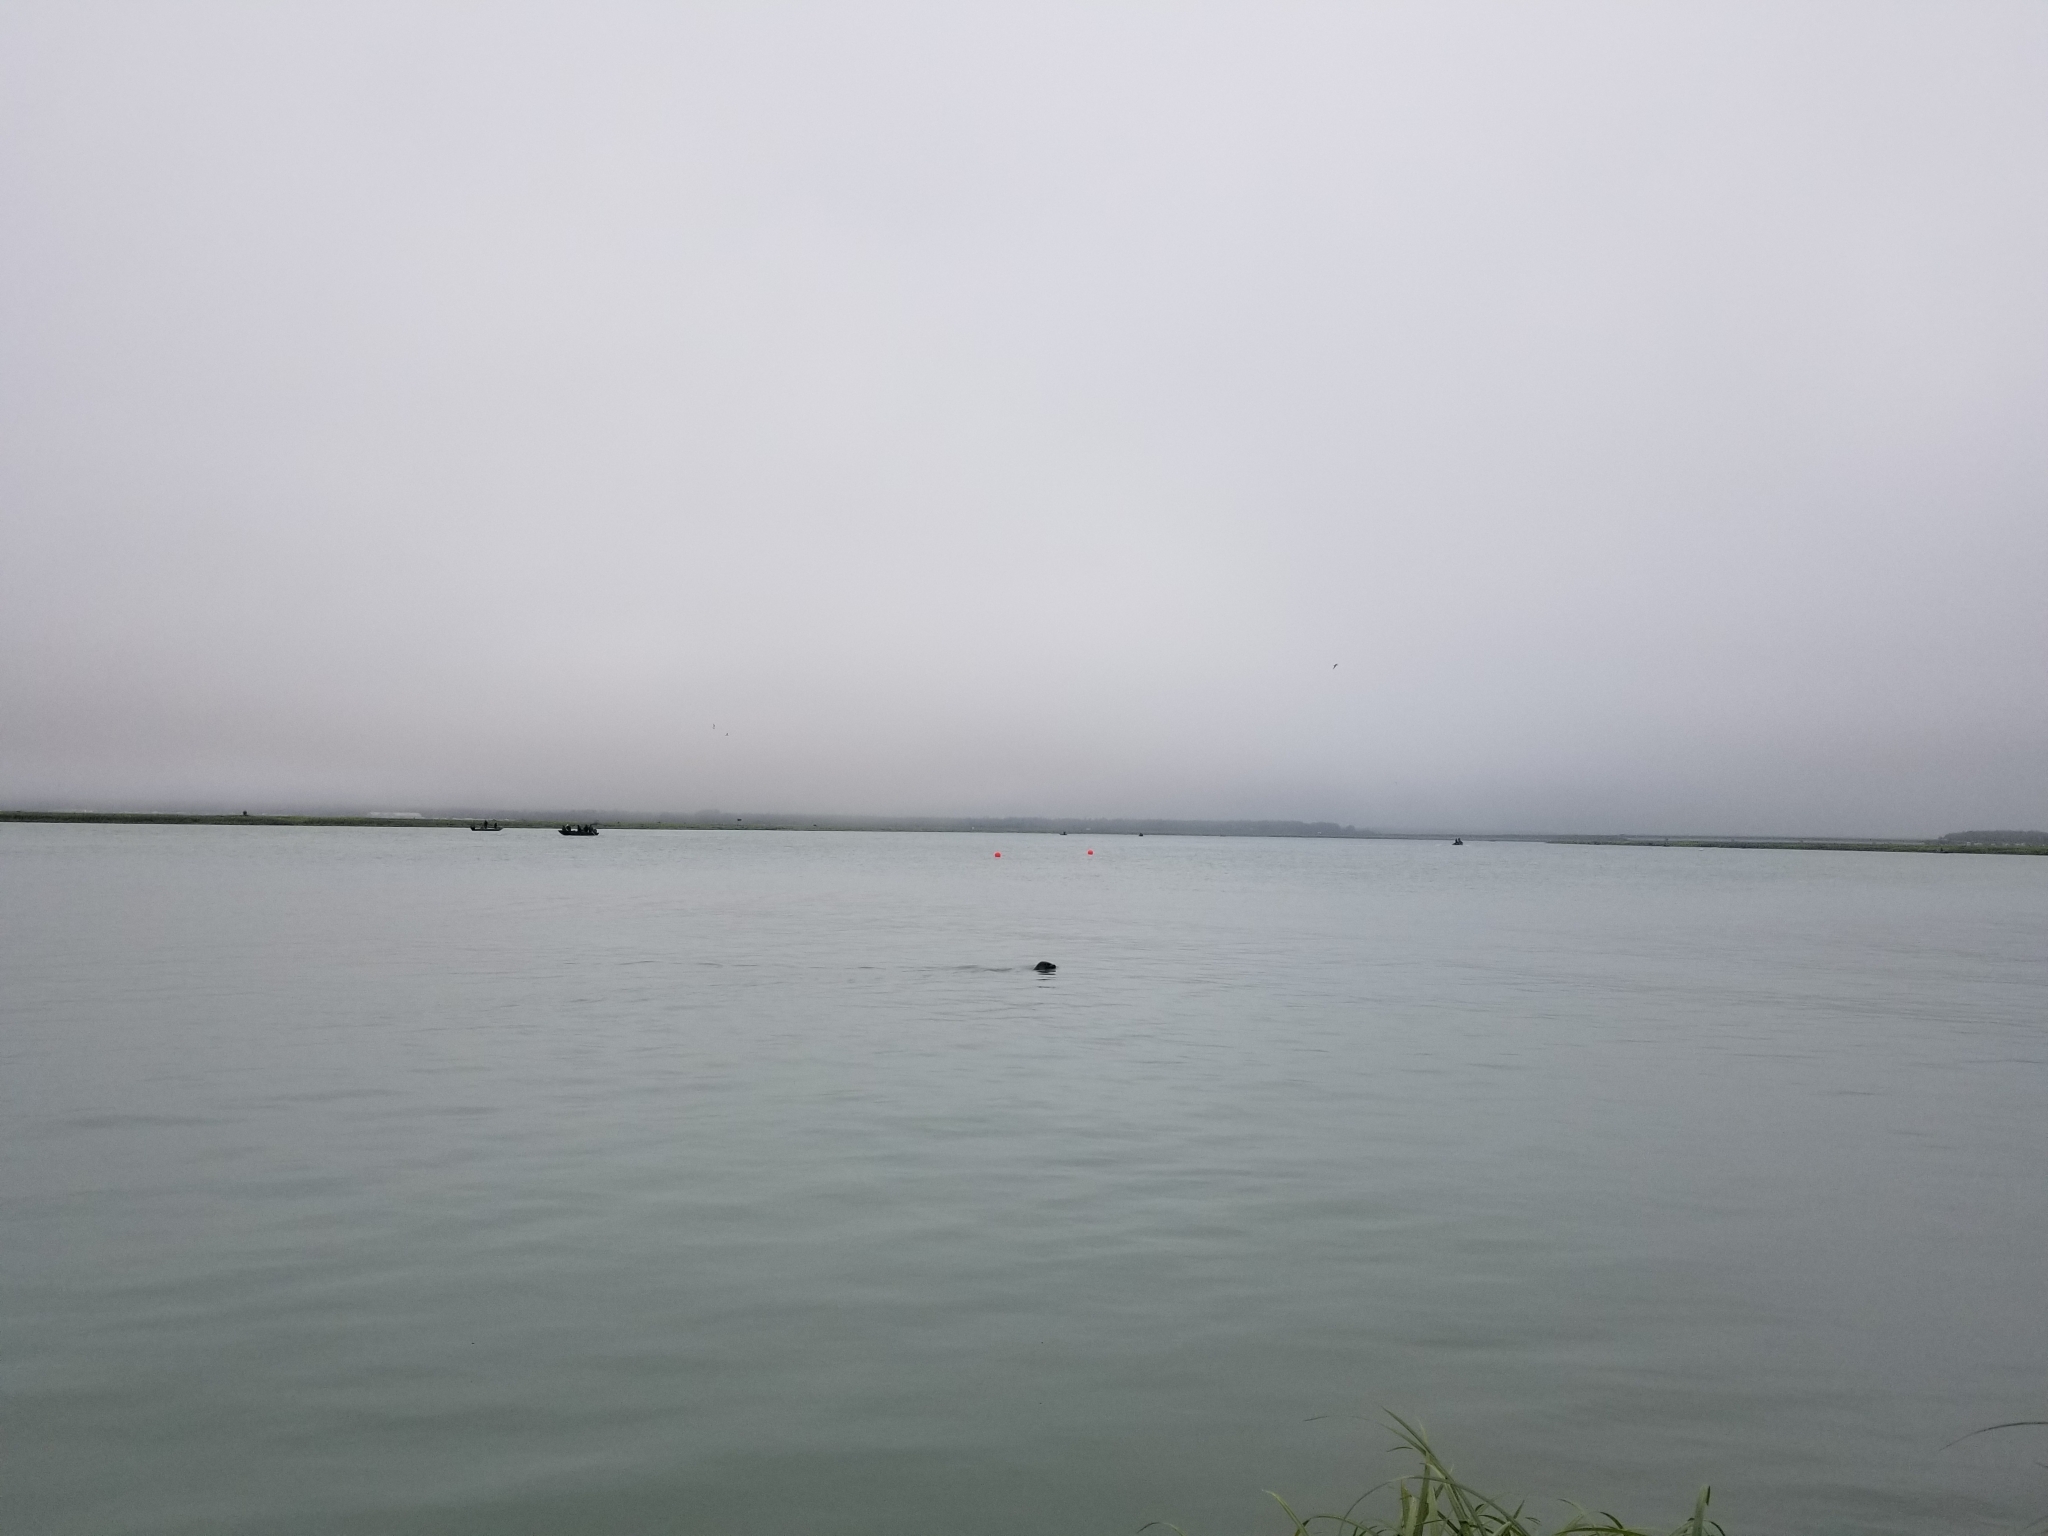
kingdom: Animalia
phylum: Chordata
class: Mammalia
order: Carnivora
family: Phocidae
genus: Phoca
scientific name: Phoca vitulina
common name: Harbor seal
